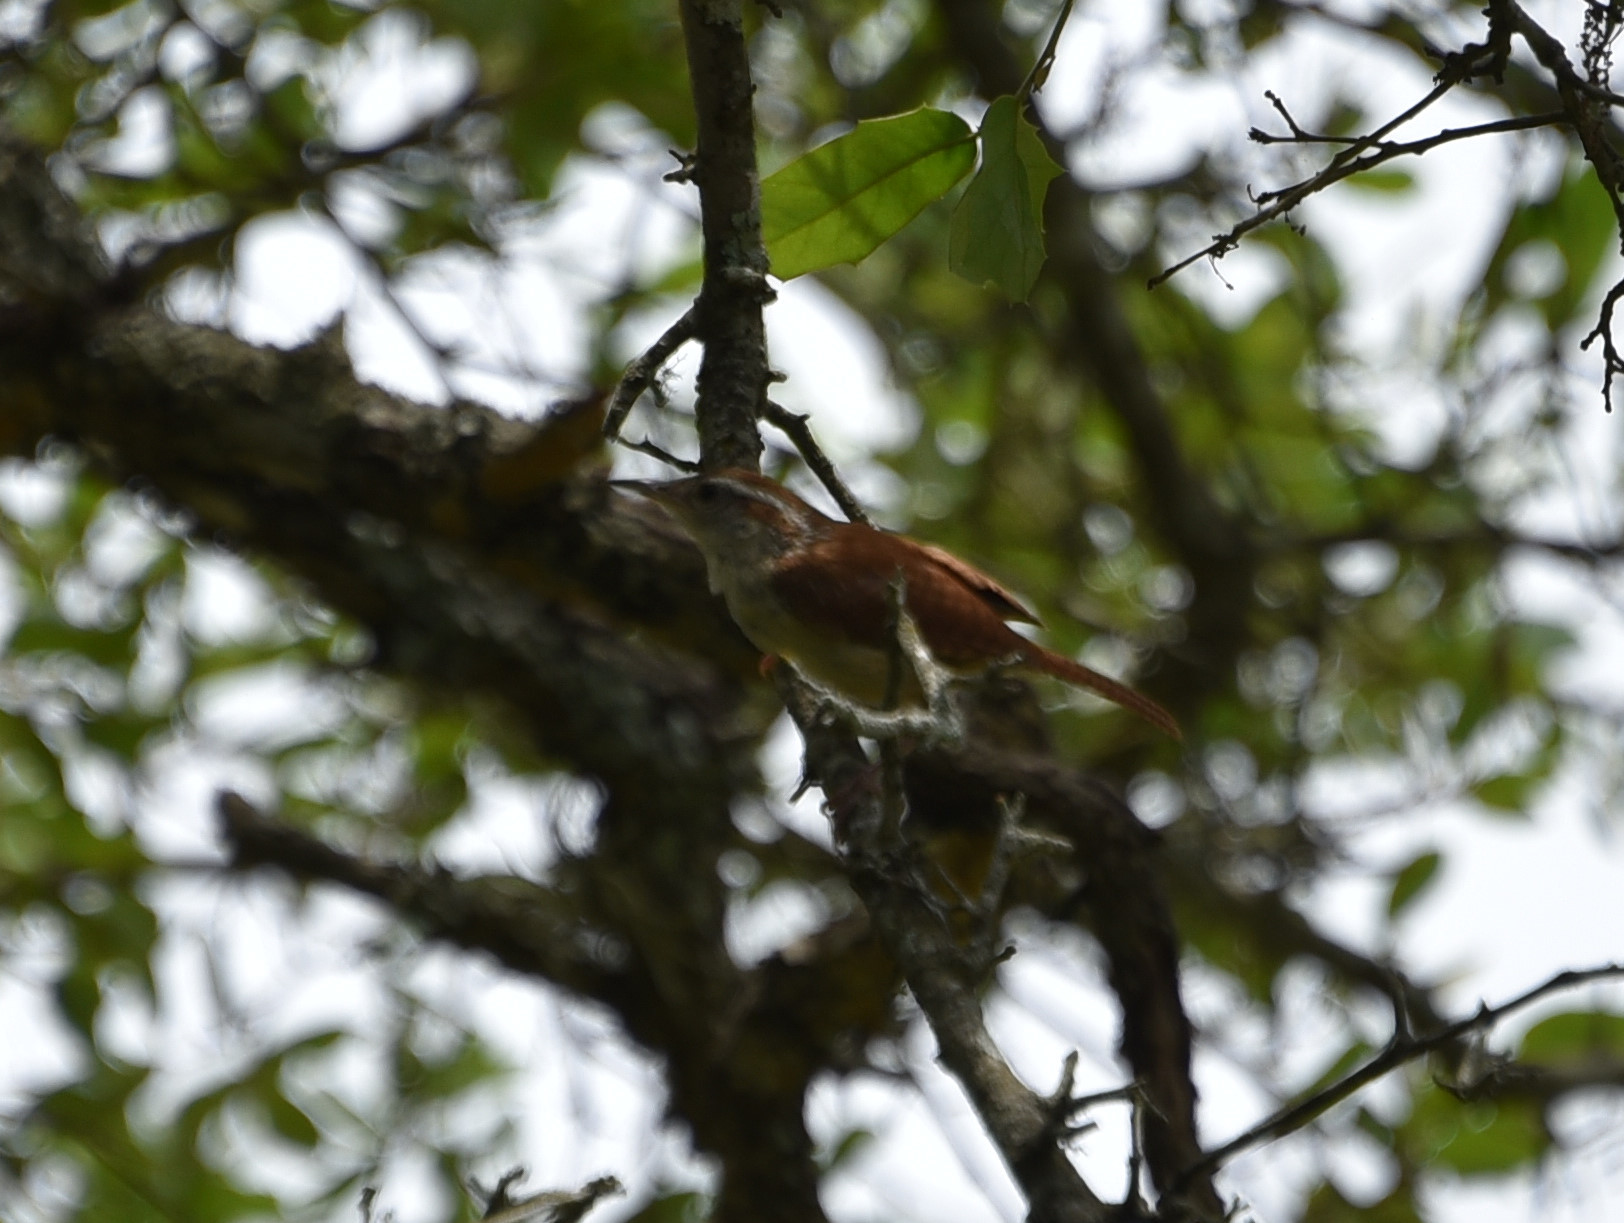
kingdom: Animalia
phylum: Chordata
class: Aves
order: Passeriformes
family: Troglodytidae
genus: Thryothorus
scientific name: Thryothorus ludovicianus
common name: Carolina wren
